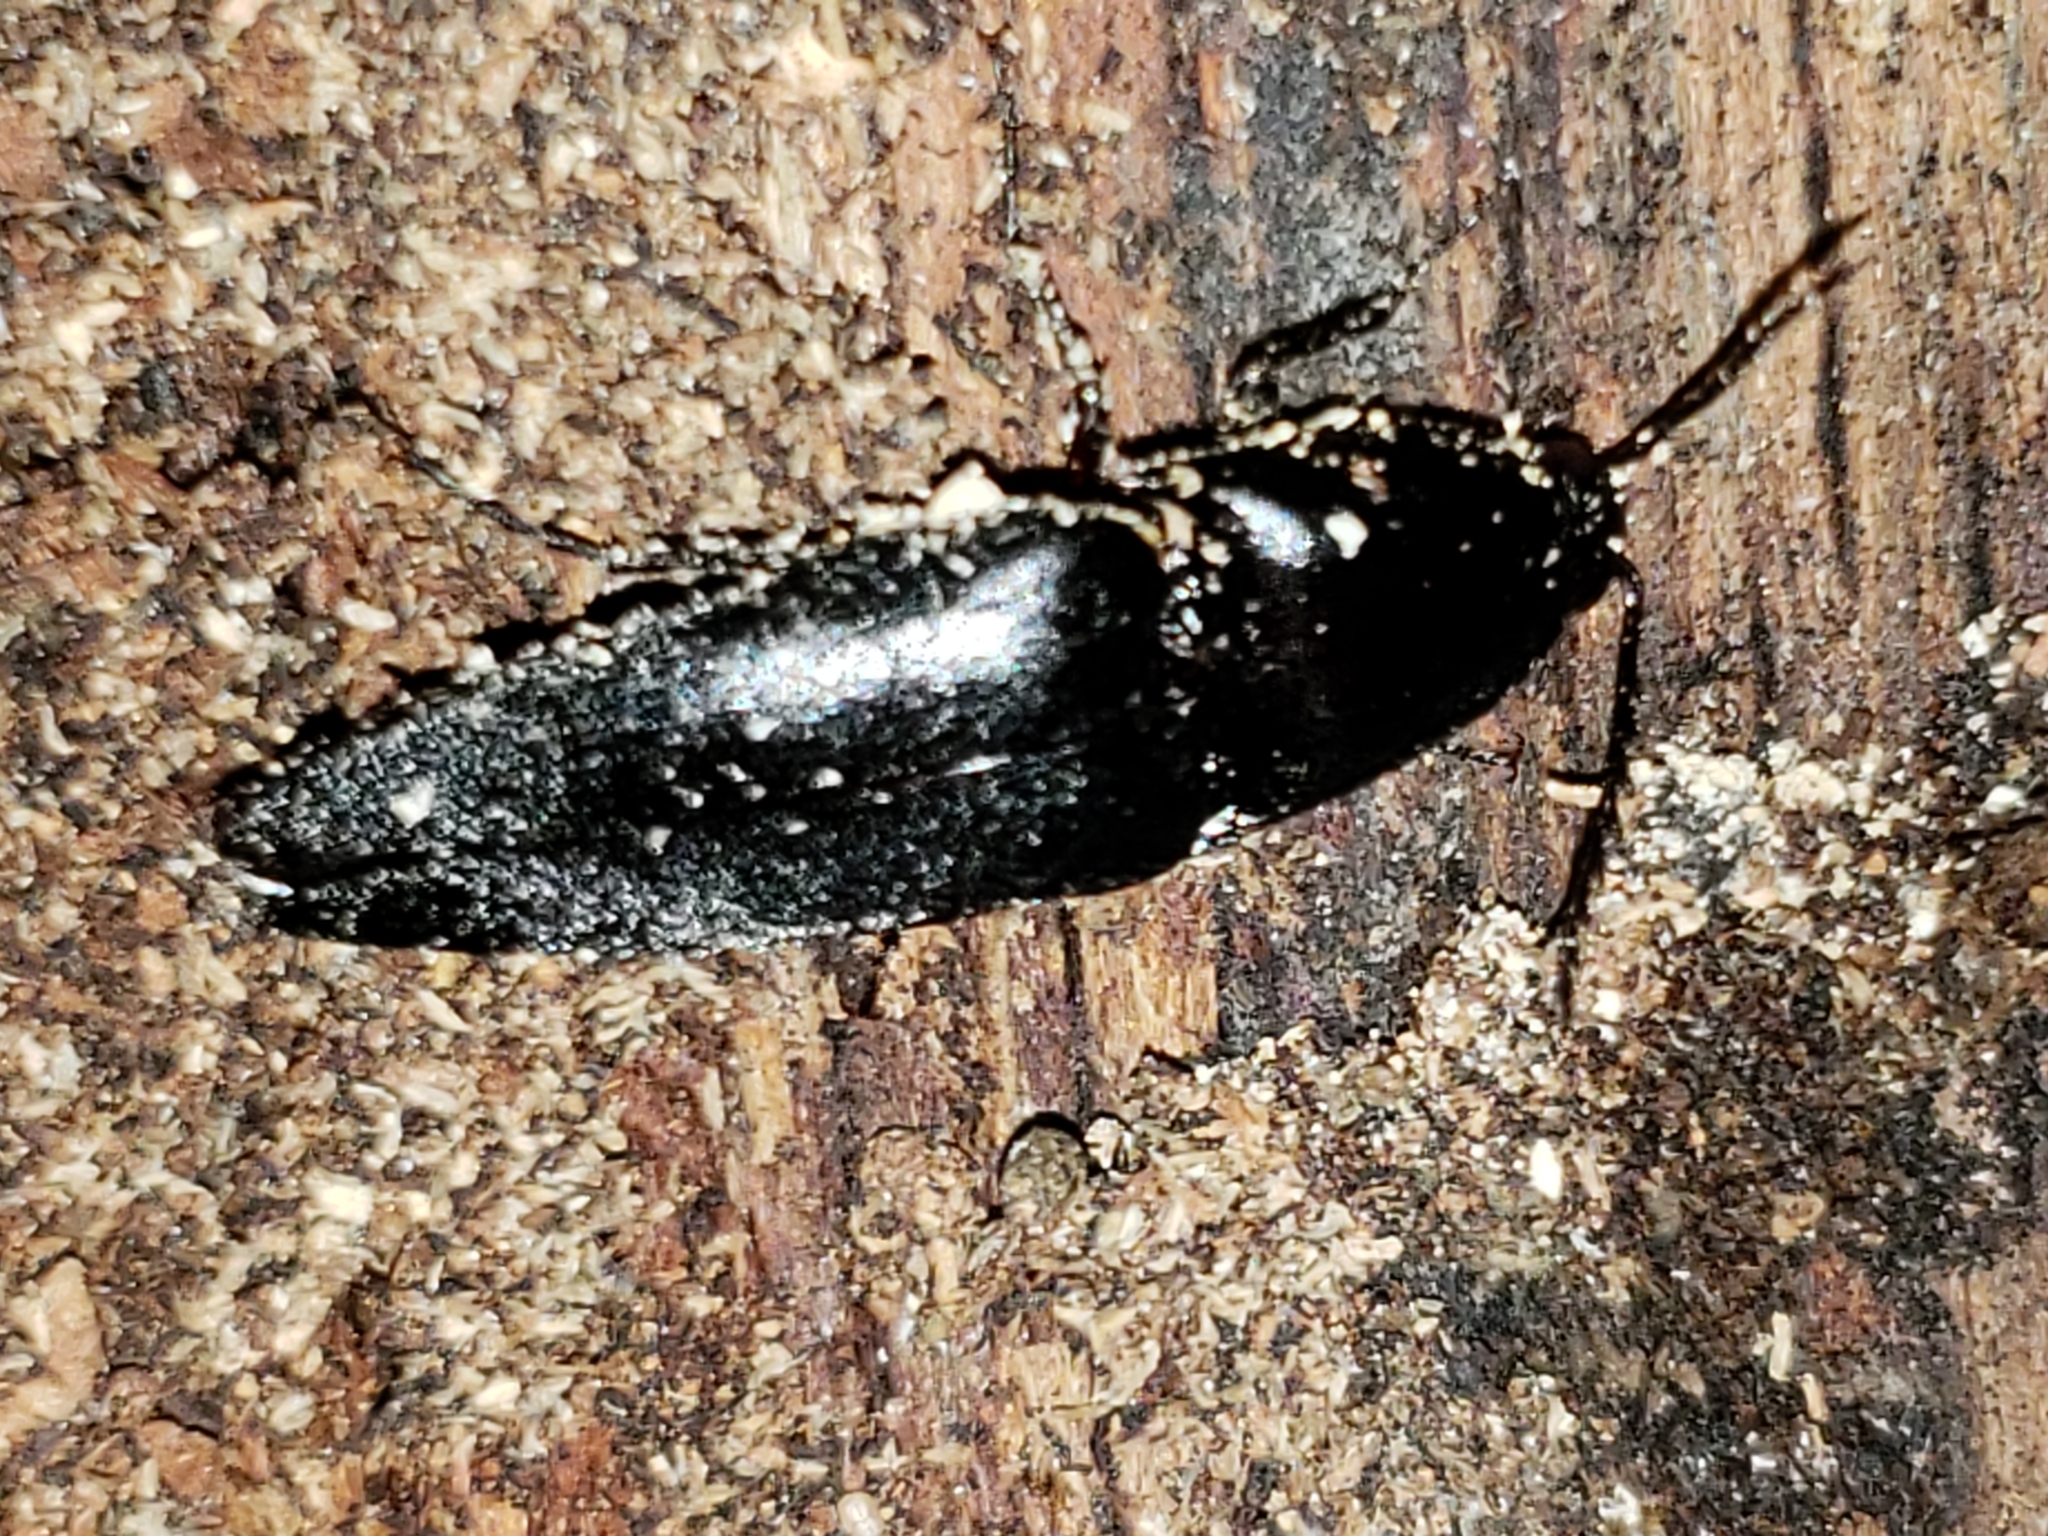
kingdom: Animalia
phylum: Arthropoda
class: Insecta
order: Coleoptera
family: Elateridae
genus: Parallelostethus
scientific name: Parallelostethus attenuatus
